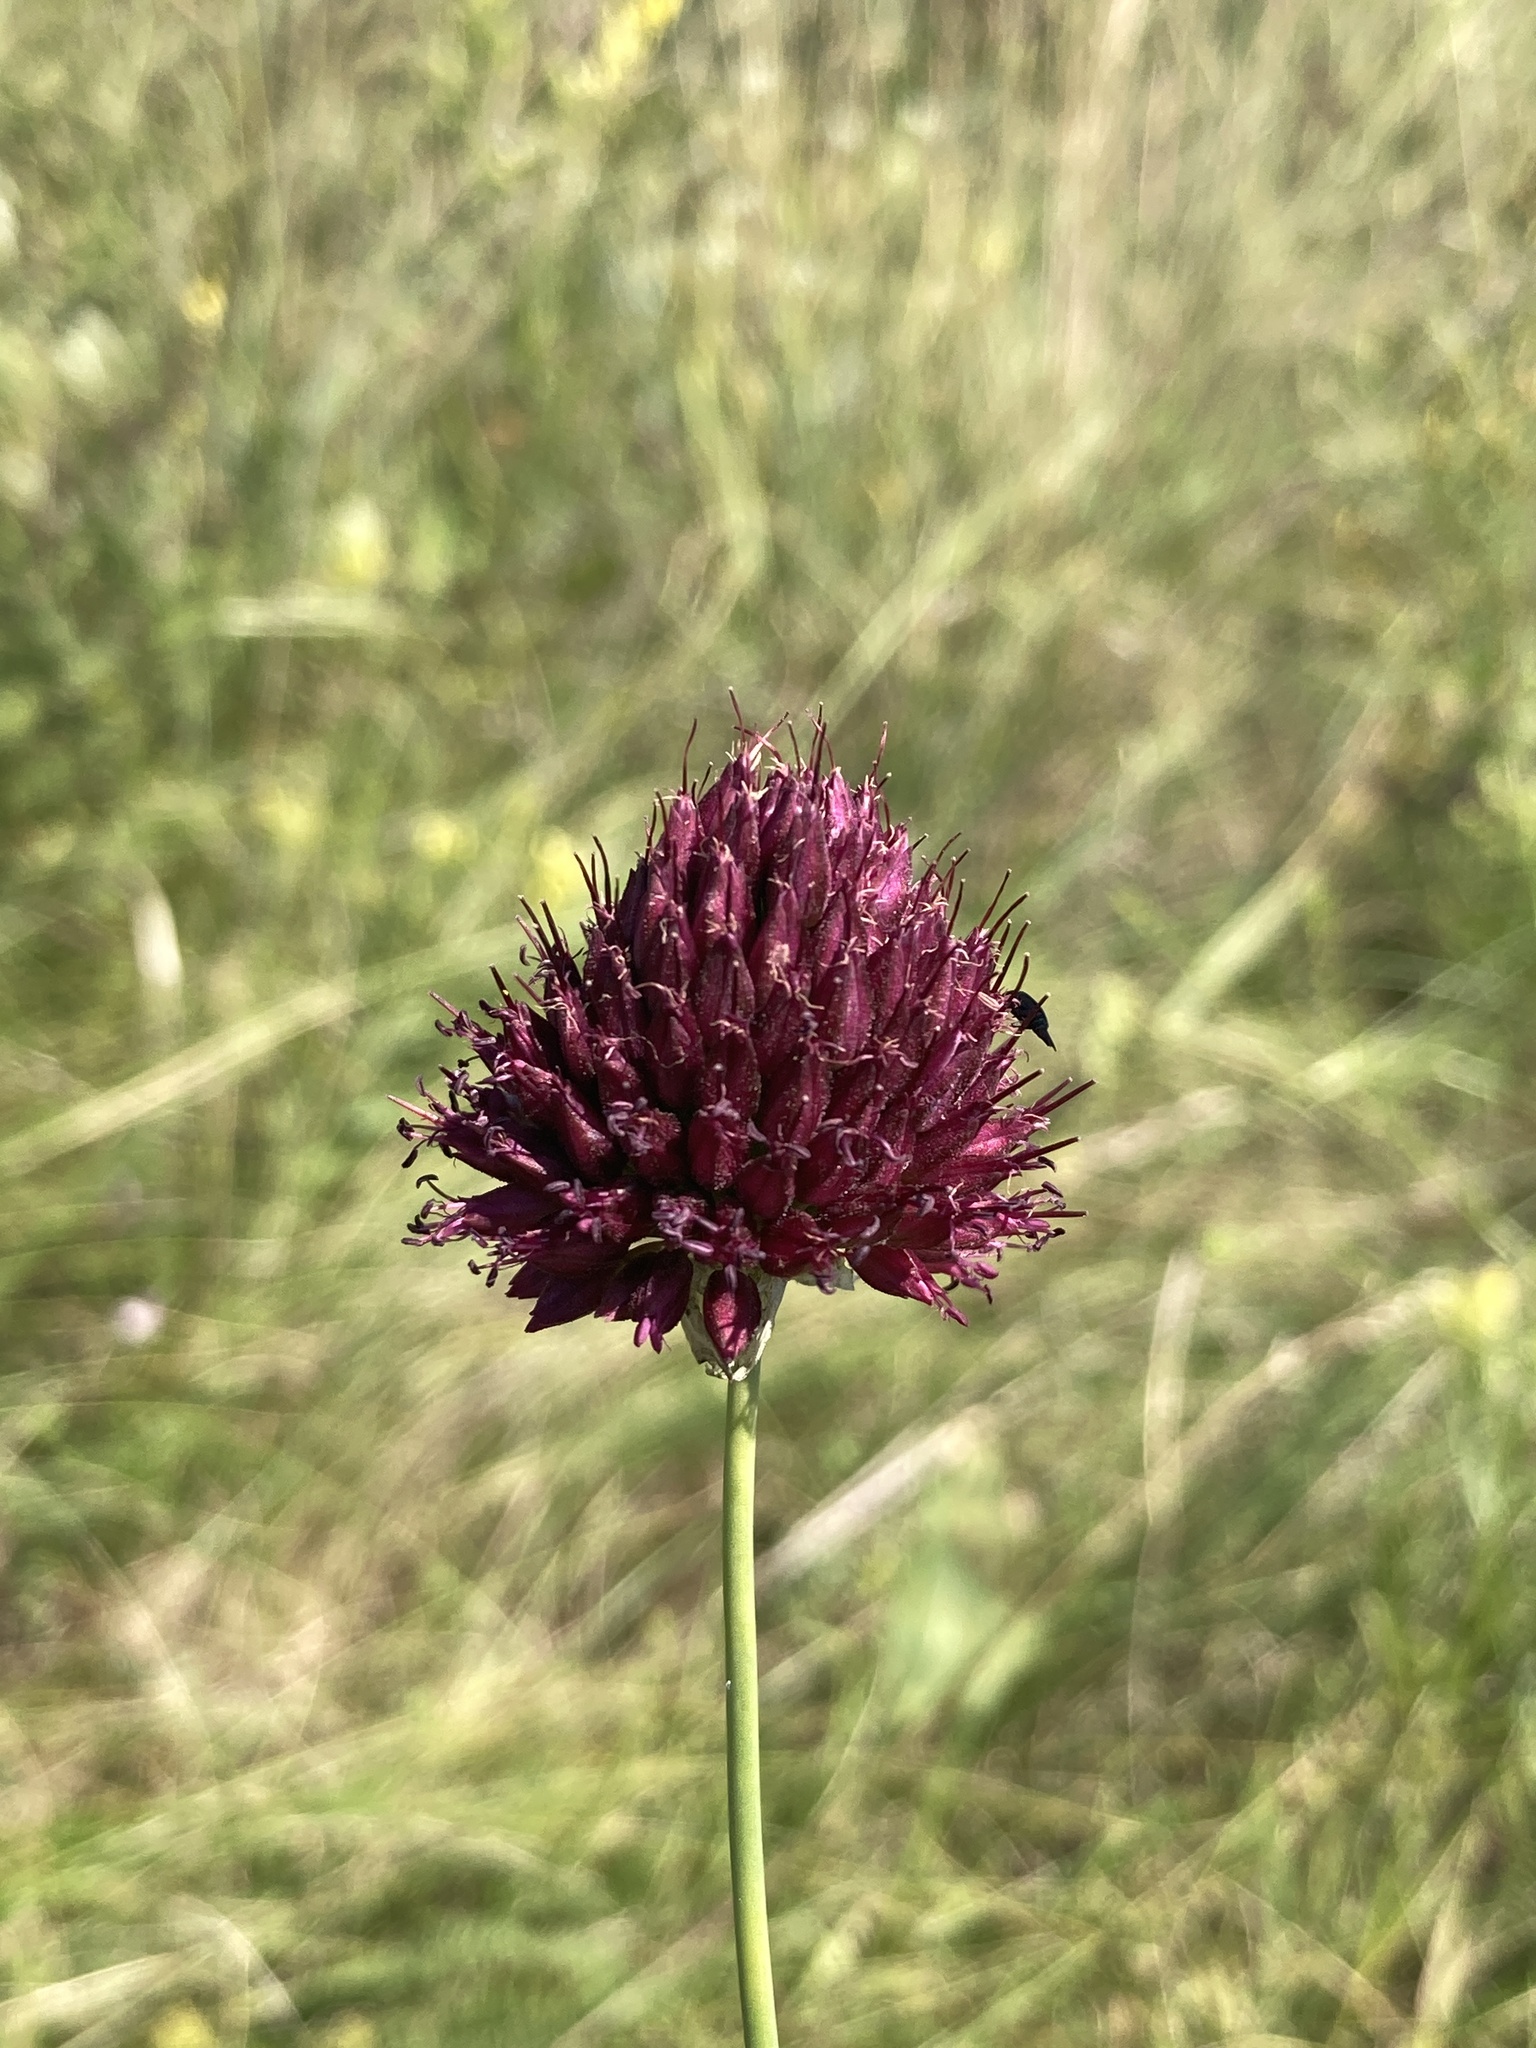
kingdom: Plantae
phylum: Tracheophyta
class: Liliopsida
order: Asparagales
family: Amaryllidaceae
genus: Allium
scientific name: Allium sphaerocephalon
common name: Round-headed leek
